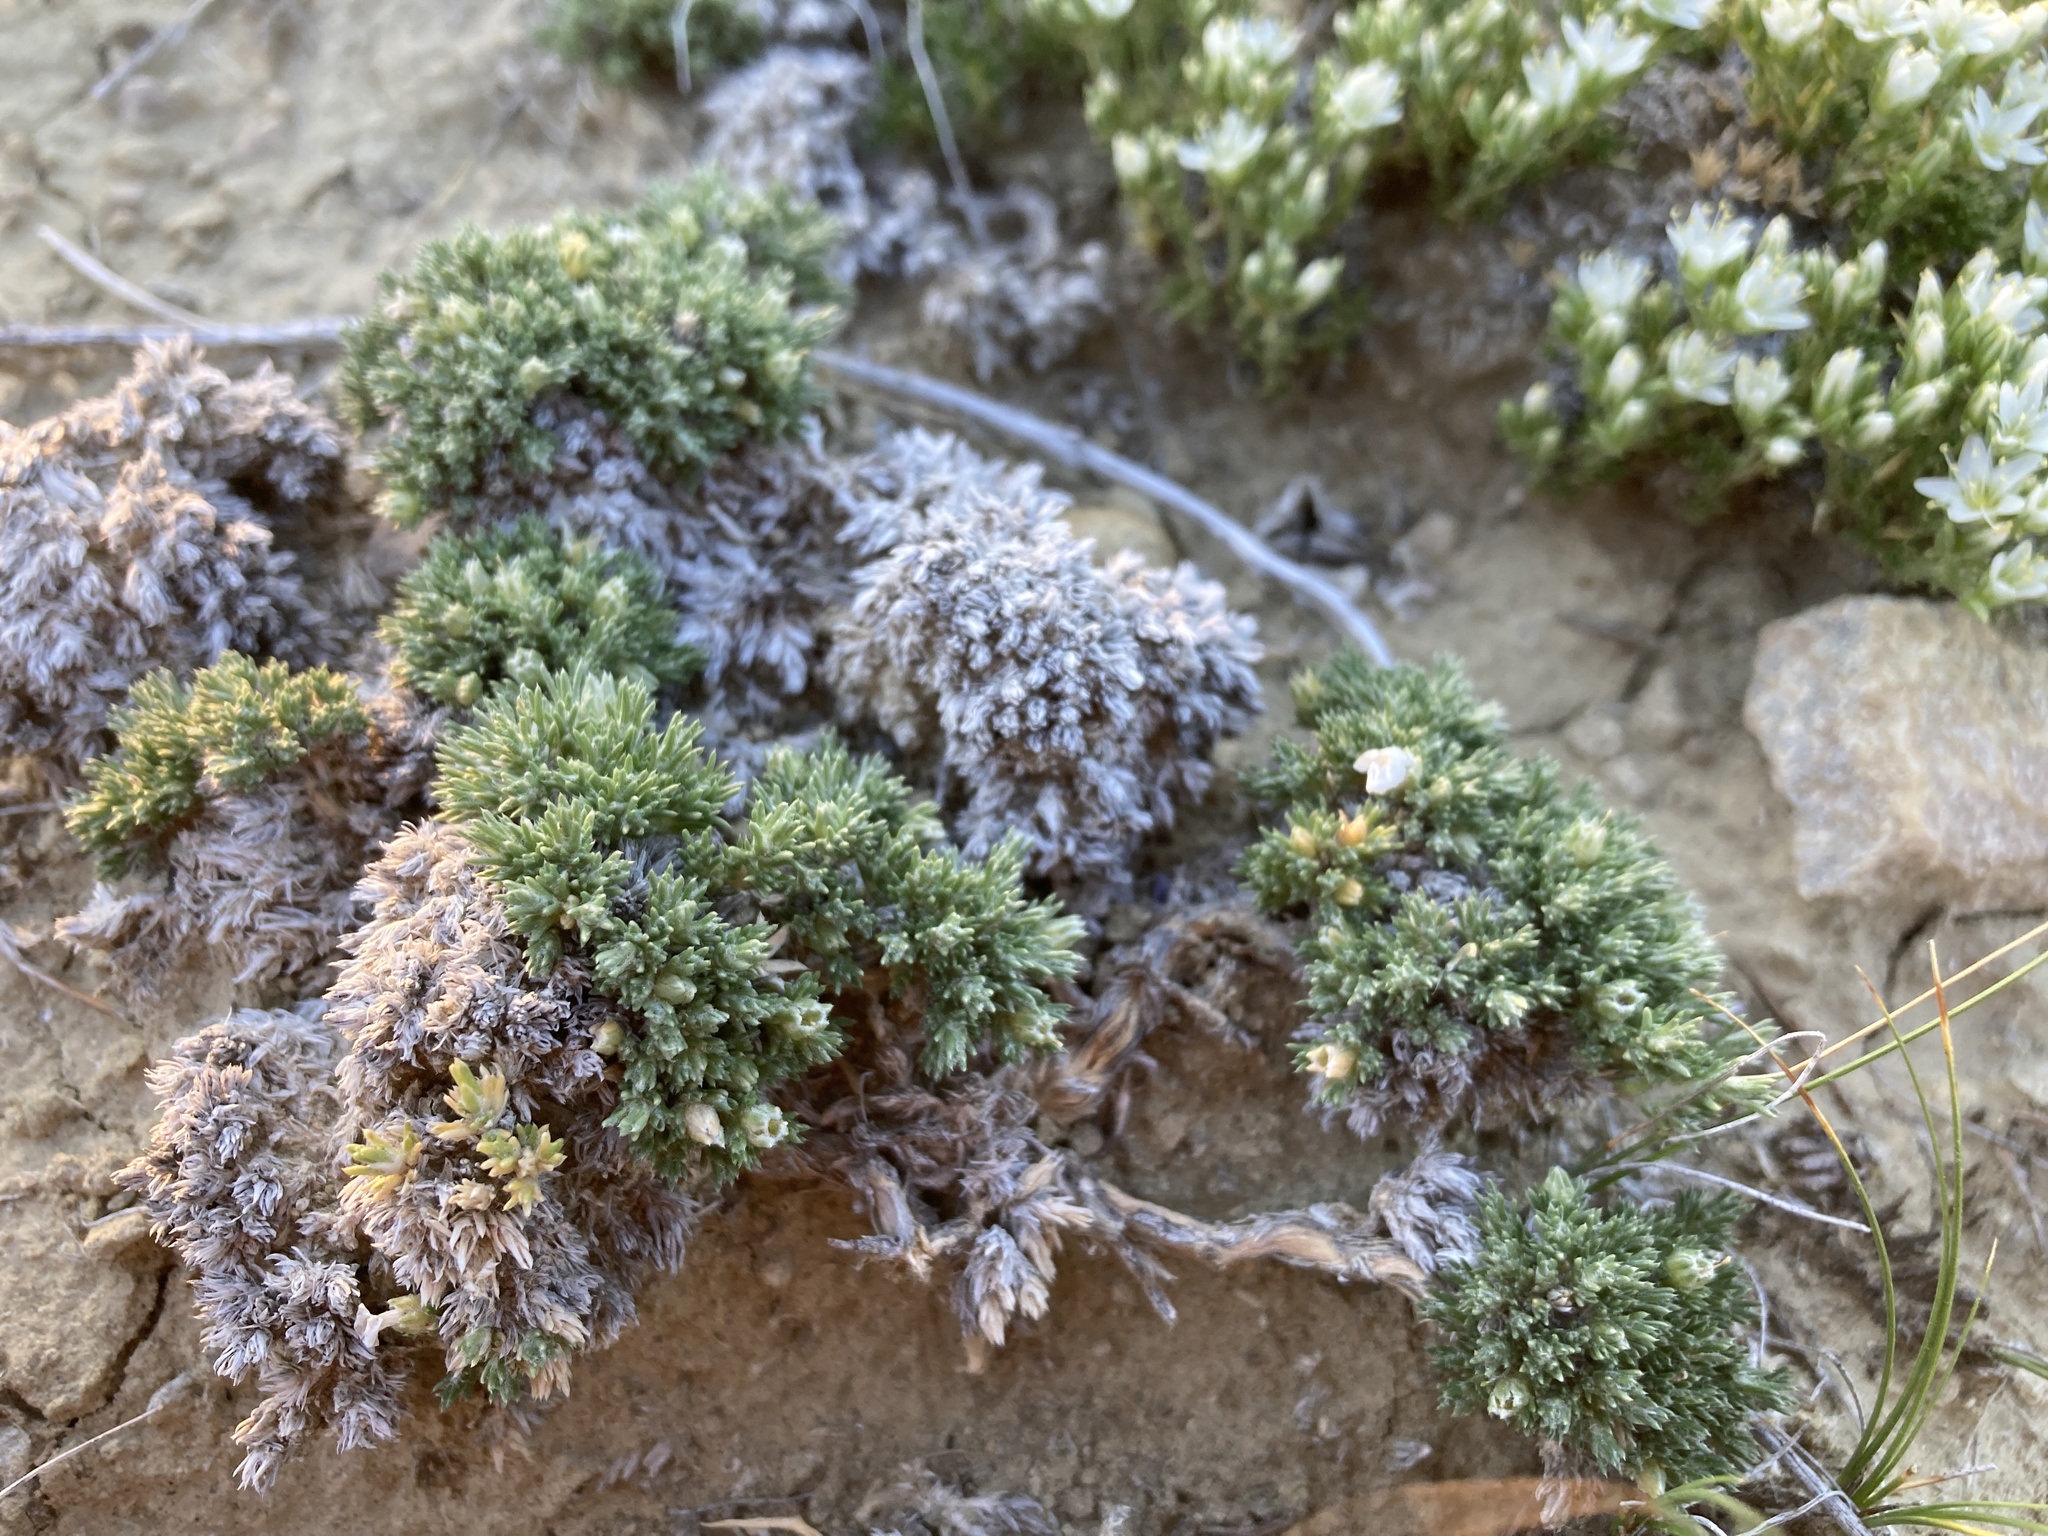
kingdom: Plantae
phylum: Tracheophyta
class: Magnoliopsida
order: Ericales
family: Polemoniaceae
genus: Phlox
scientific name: Phlox hoodii
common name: Moss phlox
